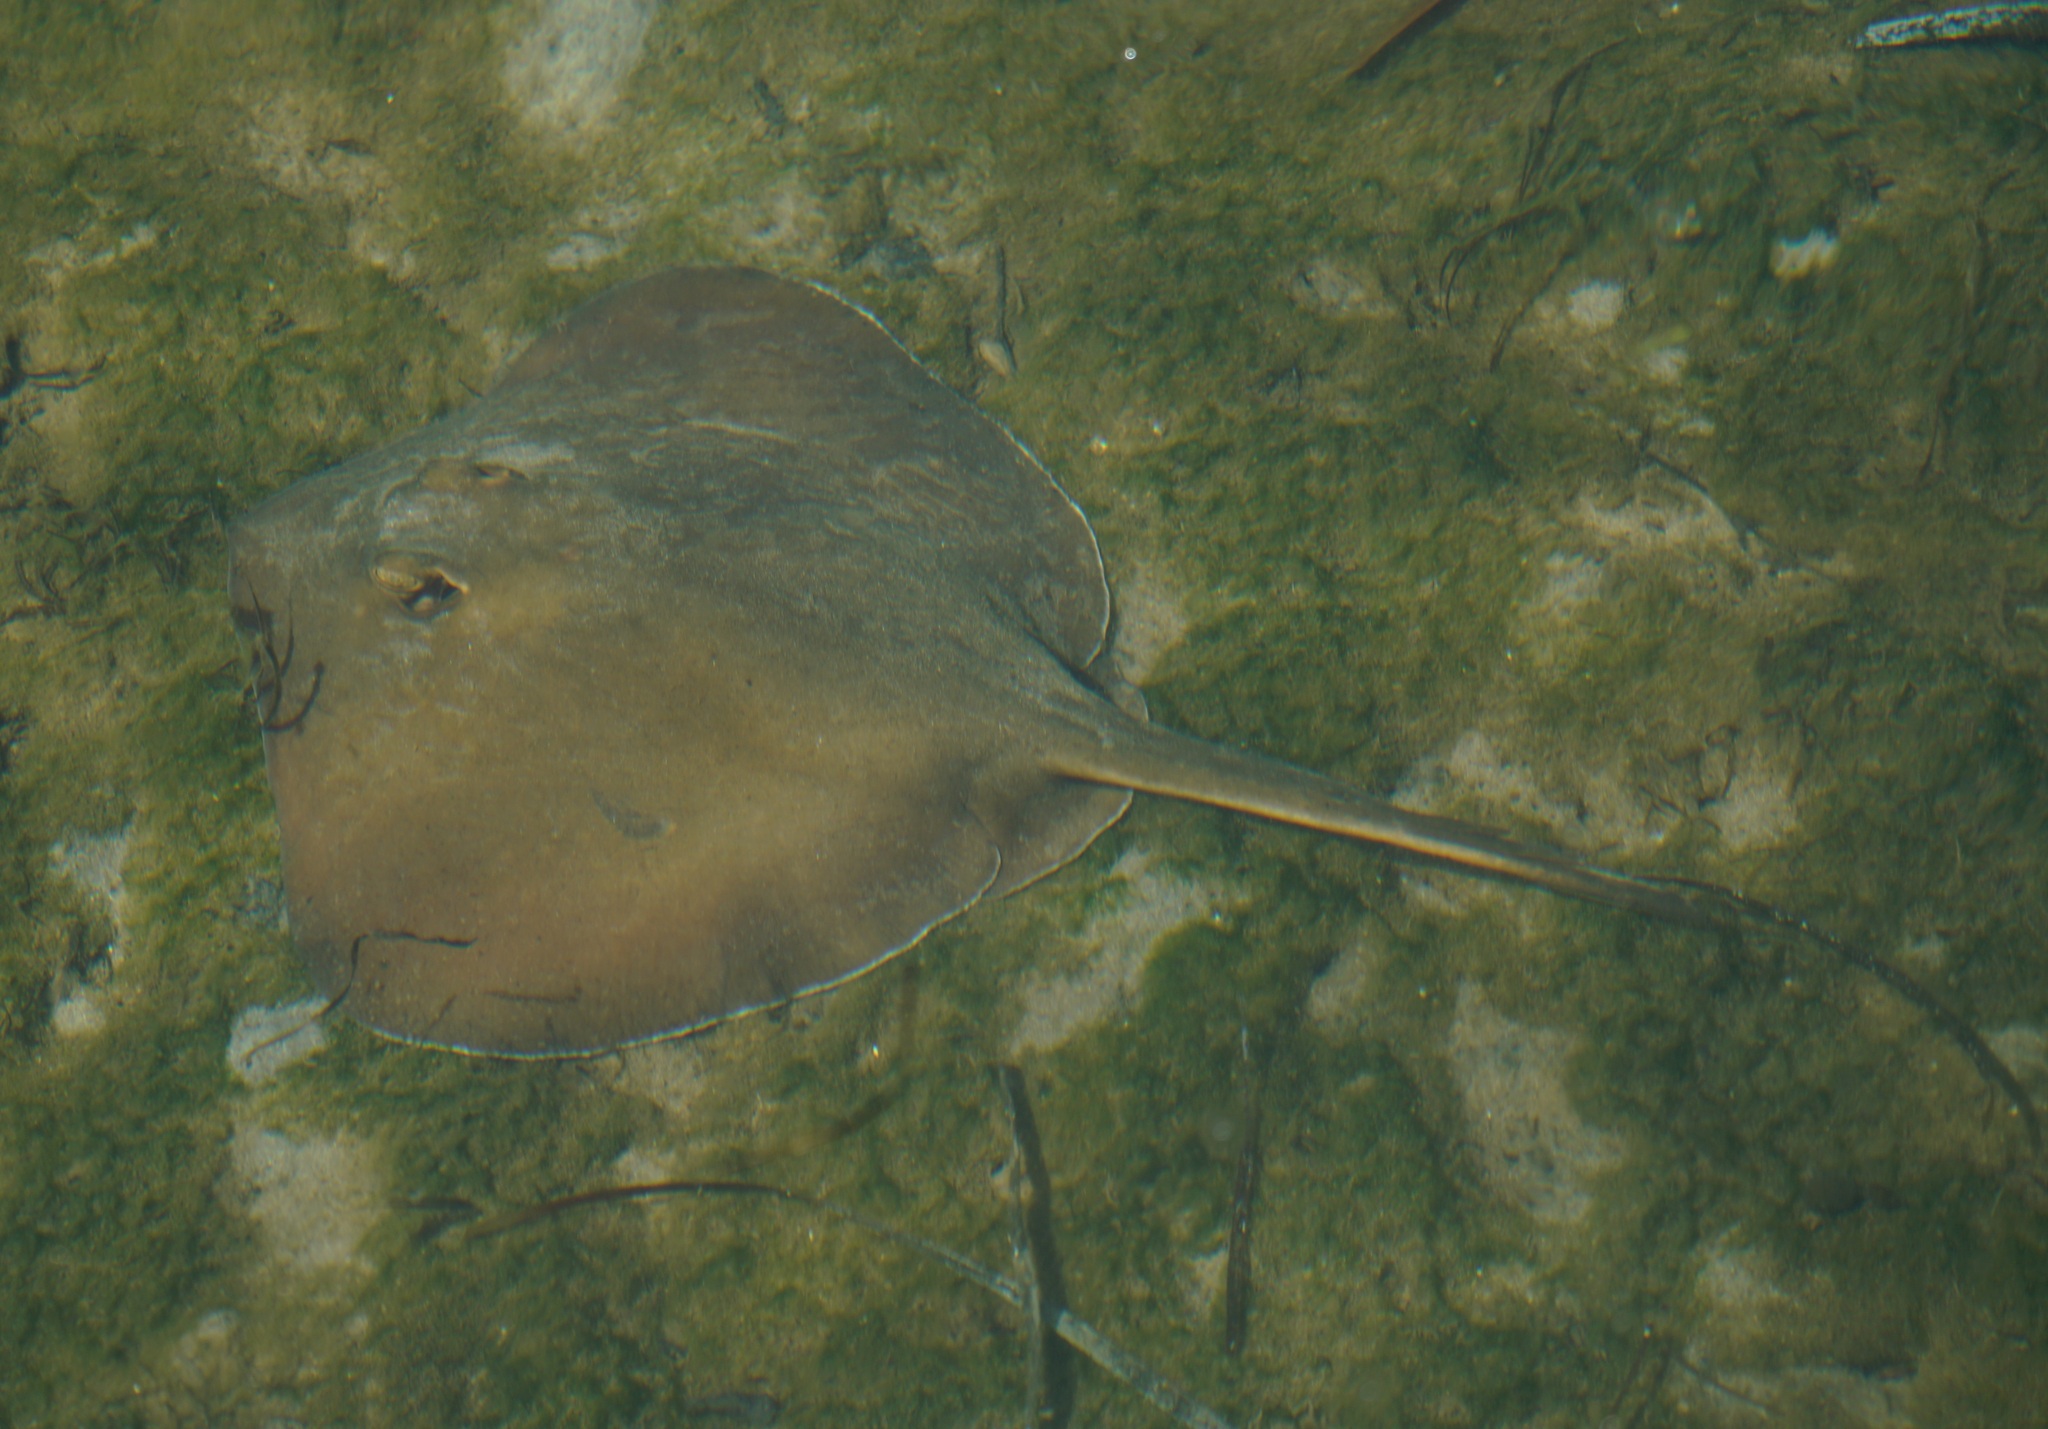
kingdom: Animalia
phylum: Chordata
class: Elasmobranchii
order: Myliobatiformes
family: Urolophidae
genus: Trygonoptera
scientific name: Trygonoptera testacea
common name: Common stingaree
